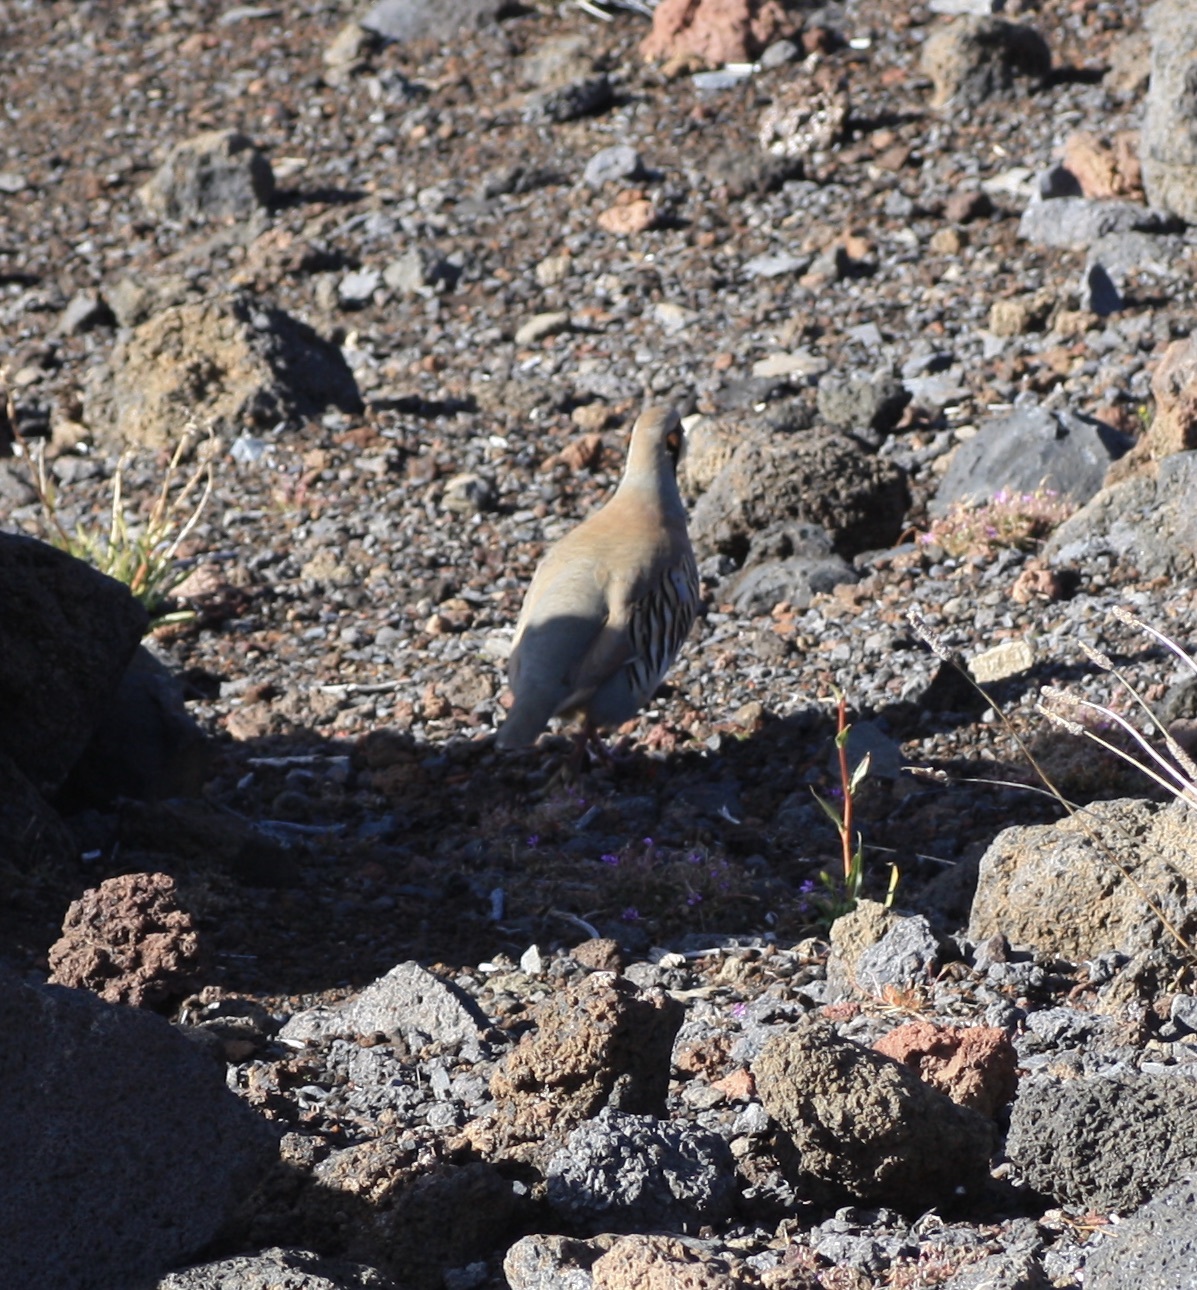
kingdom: Animalia
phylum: Chordata
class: Aves
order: Galliformes
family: Phasianidae
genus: Alectoris
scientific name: Alectoris chukar
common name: Chukar
